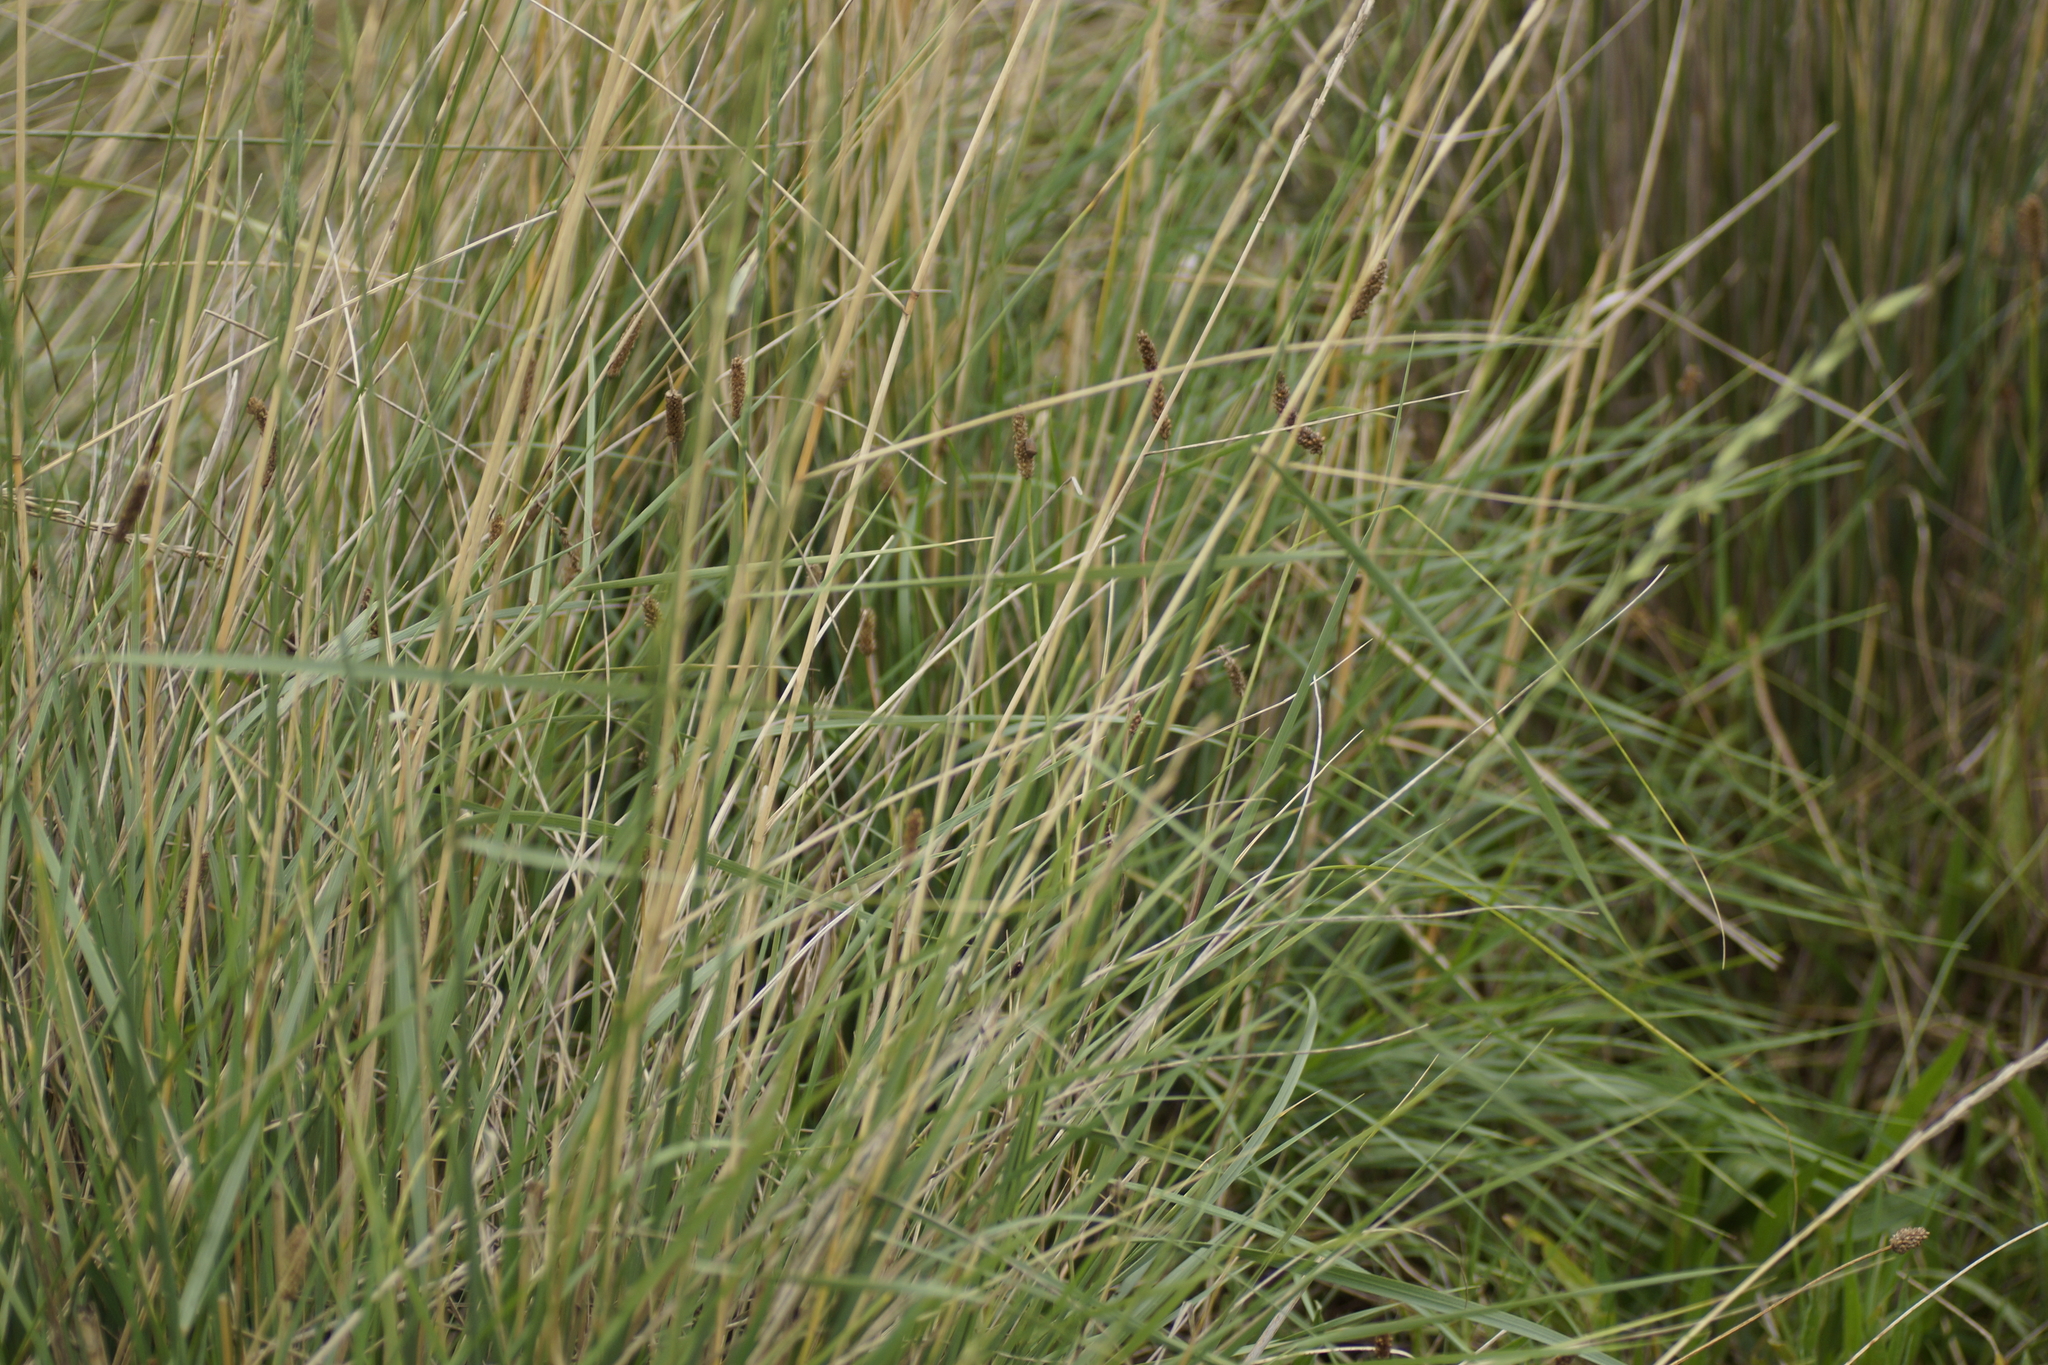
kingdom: Plantae
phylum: Tracheophyta
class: Liliopsida
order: Poales
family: Poaceae
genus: Lolium
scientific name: Lolium perenne
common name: Perennial ryegrass
